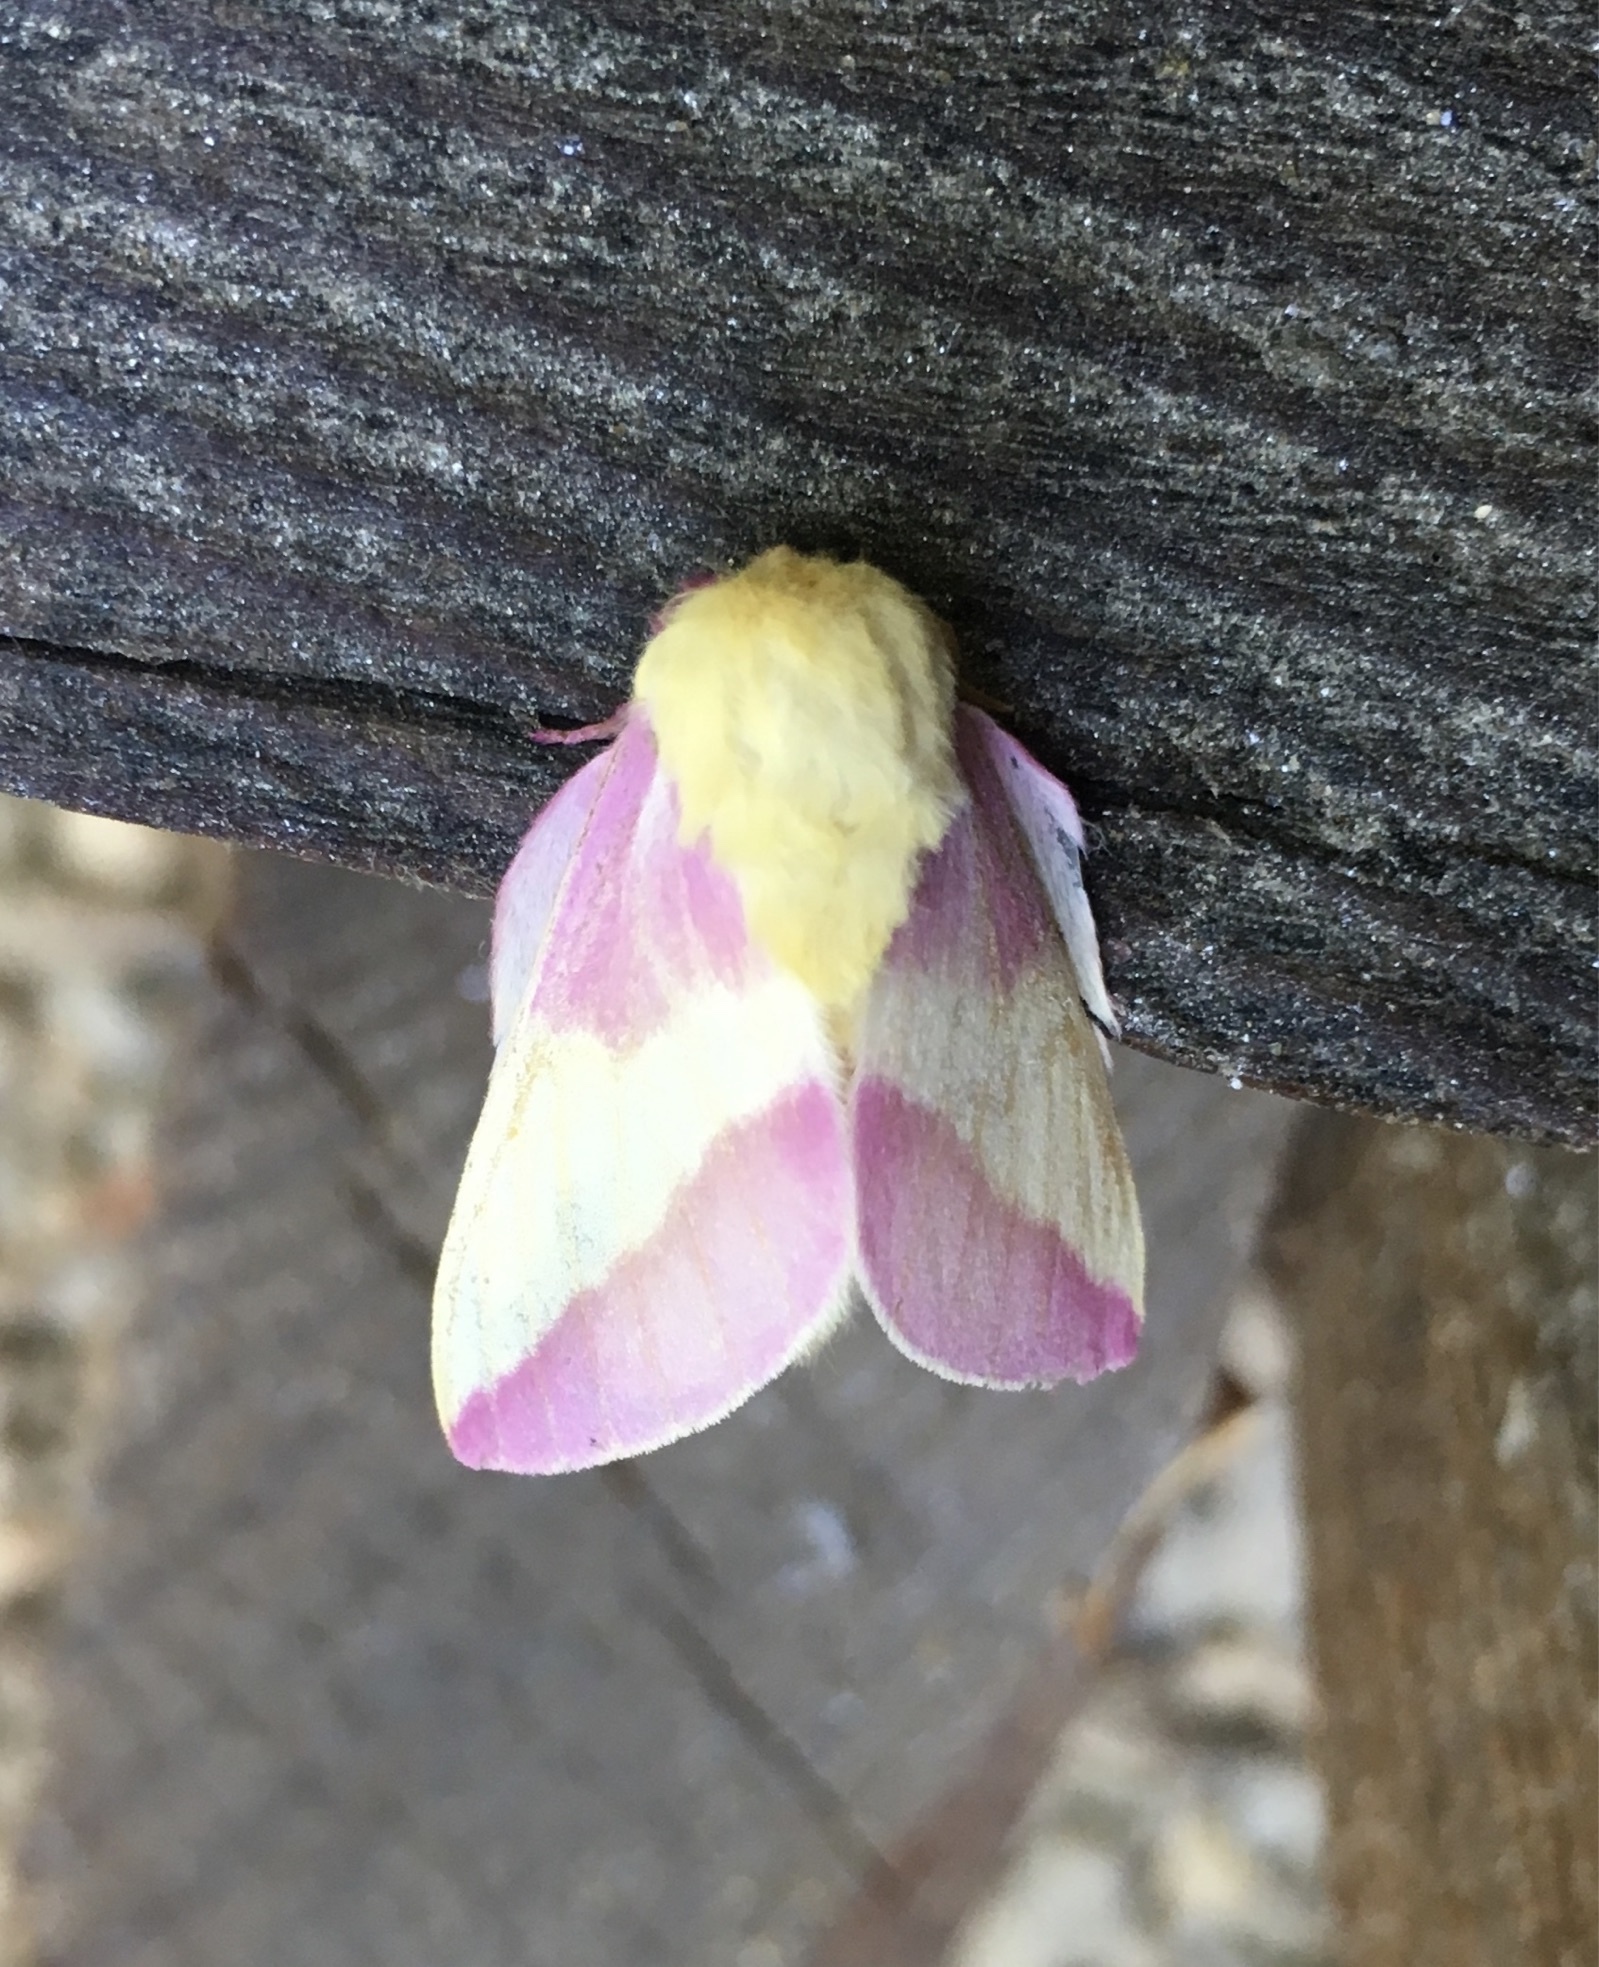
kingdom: Animalia
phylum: Arthropoda
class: Insecta
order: Lepidoptera
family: Saturniidae
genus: Dryocampa
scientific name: Dryocampa rubicunda
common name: Rosy maple moth
